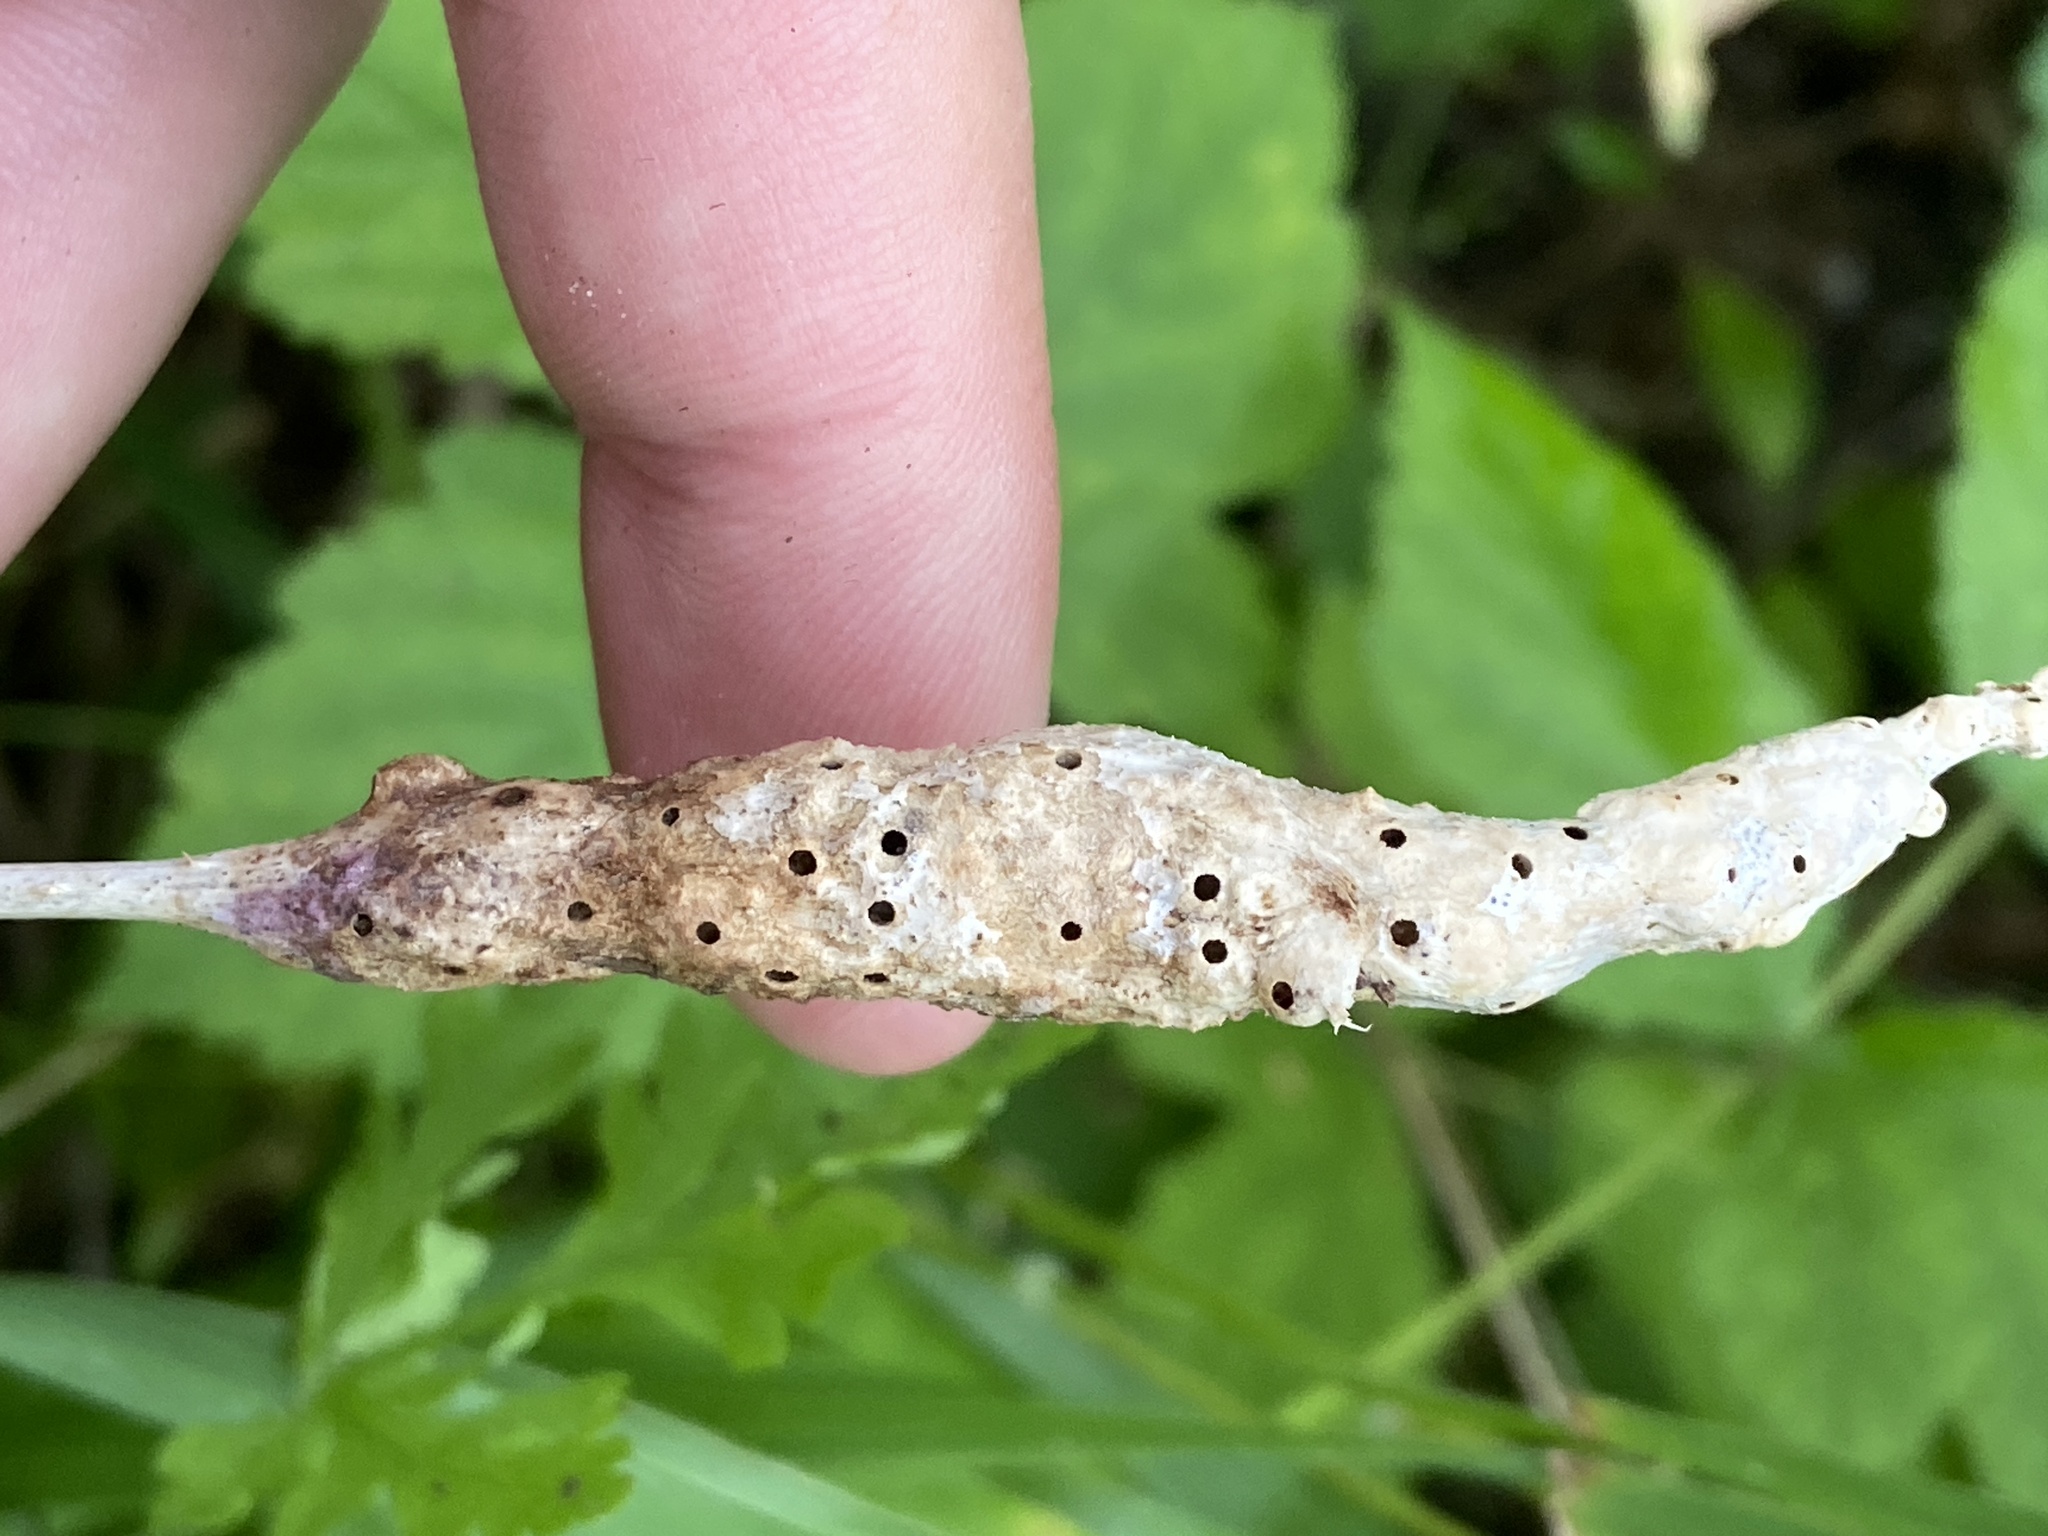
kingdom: Animalia
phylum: Arthropoda
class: Insecta
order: Hymenoptera
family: Cynipidae
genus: Diastrophus
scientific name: Diastrophus rubi
